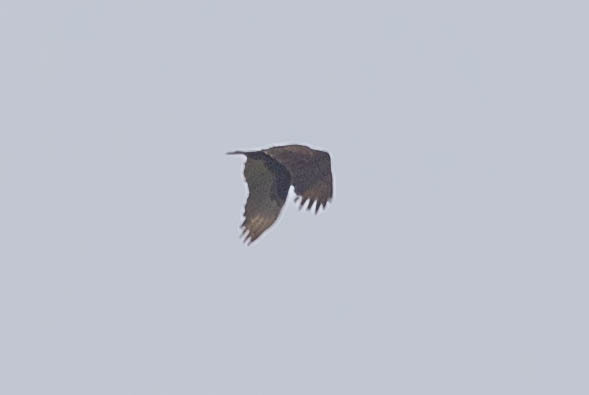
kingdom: Animalia
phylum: Chordata
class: Aves
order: Accipitriformes
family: Cathartidae
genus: Cathartes
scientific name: Cathartes aura
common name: Turkey vulture
